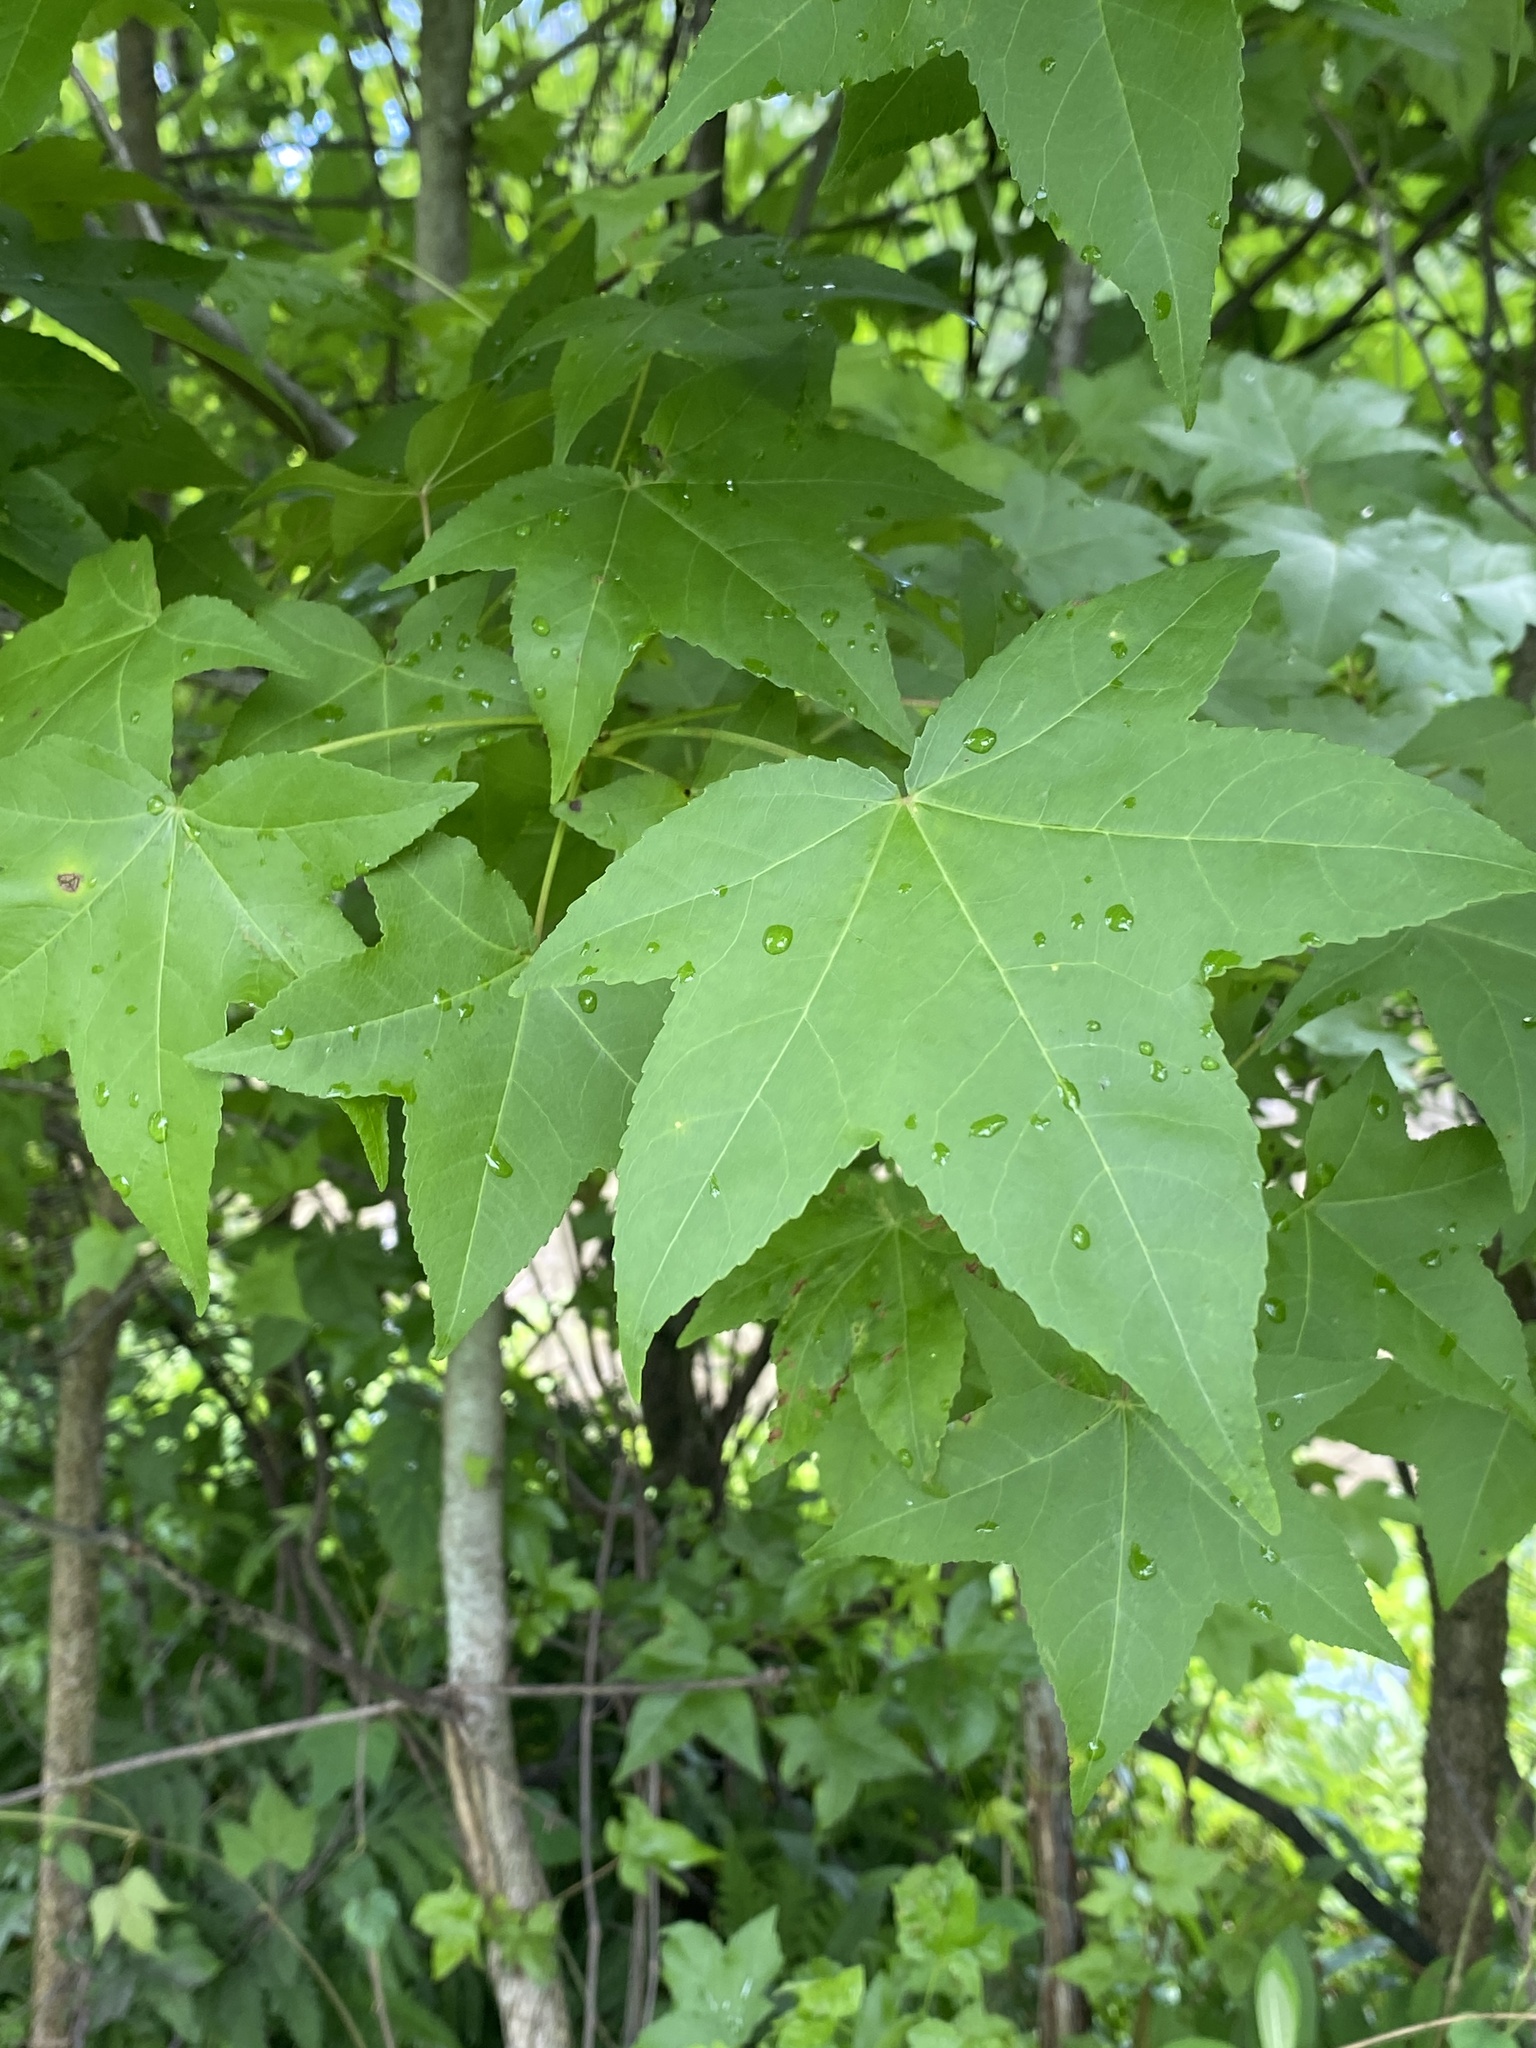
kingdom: Plantae
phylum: Tracheophyta
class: Magnoliopsida
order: Saxifragales
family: Altingiaceae
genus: Liquidambar
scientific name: Liquidambar styraciflua
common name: Sweet gum
